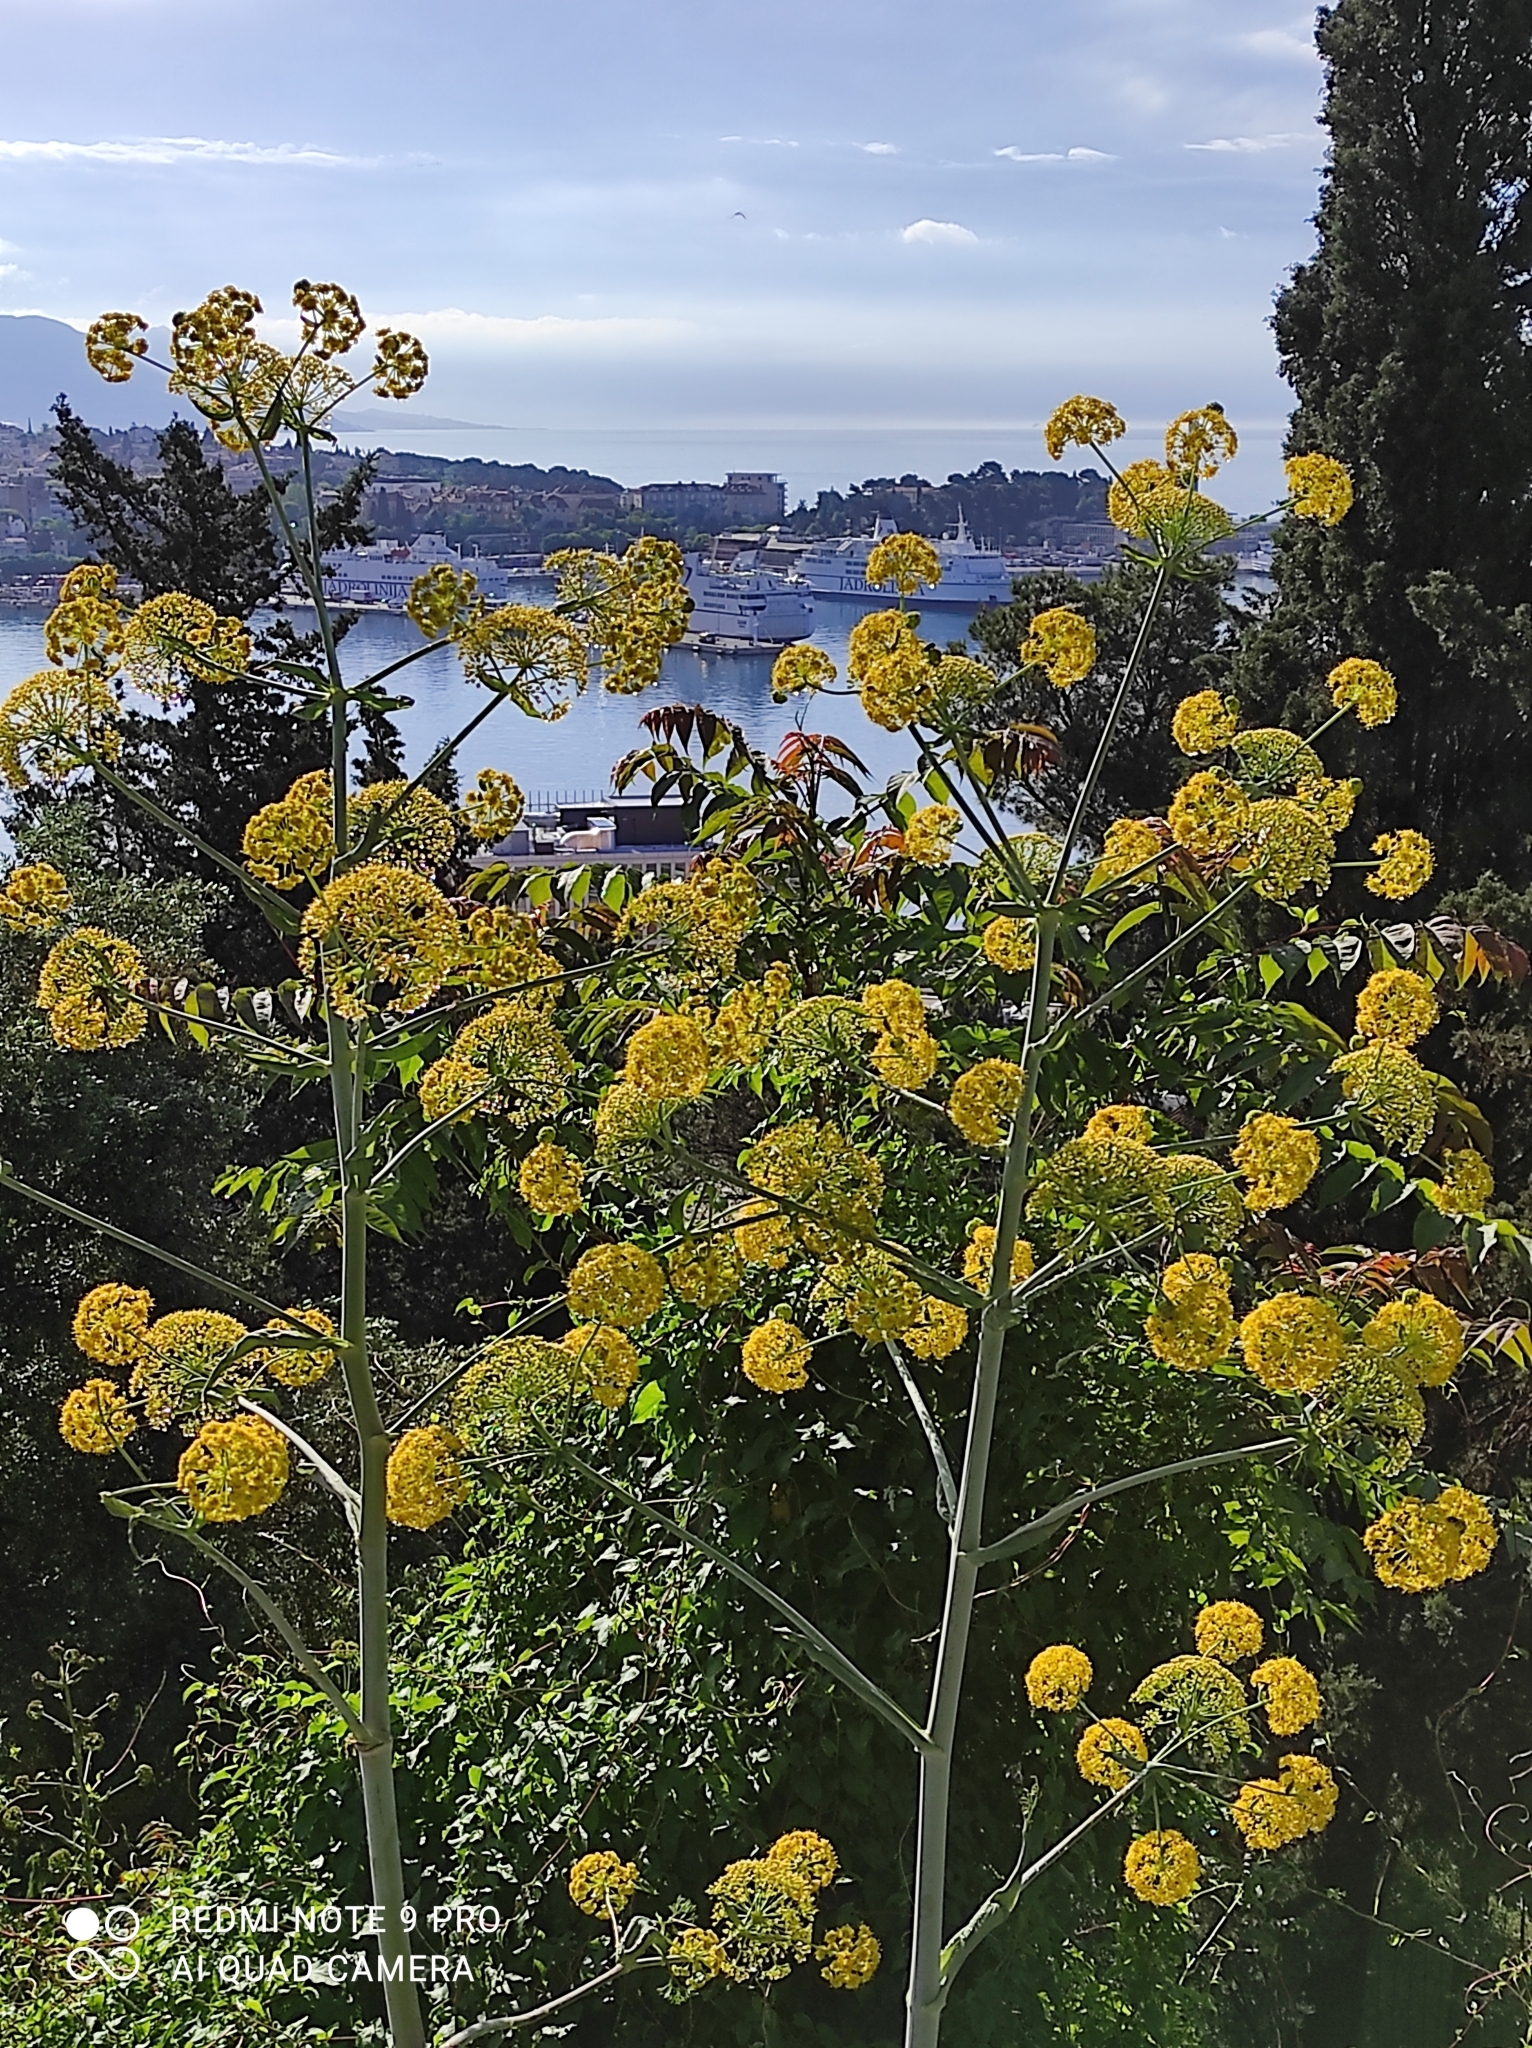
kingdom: Plantae
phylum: Tracheophyta
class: Magnoliopsida
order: Apiales
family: Apiaceae
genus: Ferula
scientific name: Ferula communis
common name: Giant fennel
